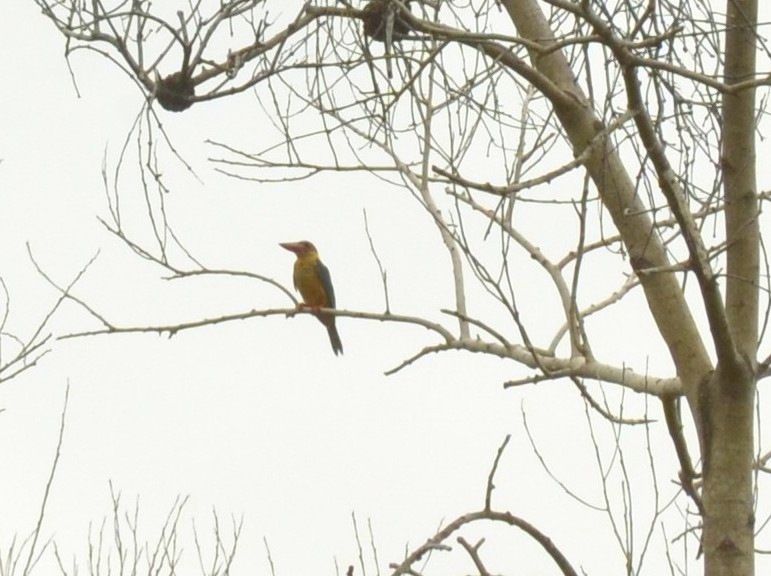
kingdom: Animalia
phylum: Chordata
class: Aves
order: Coraciiformes
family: Alcedinidae
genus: Pelargopsis
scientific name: Pelargopsis capensis
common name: Stork-billed kingfisher
